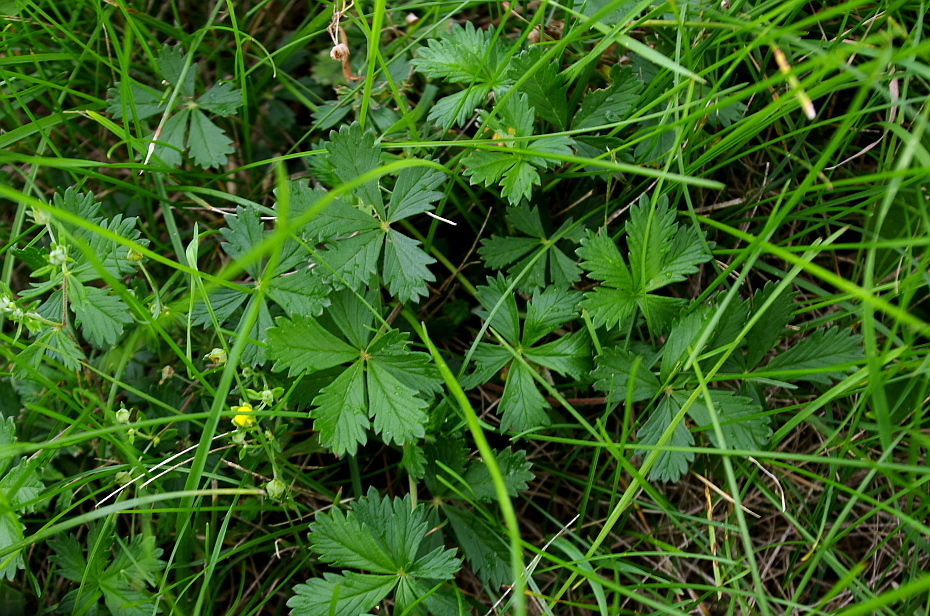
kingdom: Plantae
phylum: Tracheophyta
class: Magnoliopsida
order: Rosales
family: Rosaceae
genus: Potentilla
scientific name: Potentilla argentea
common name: Hoary cinquefoil
